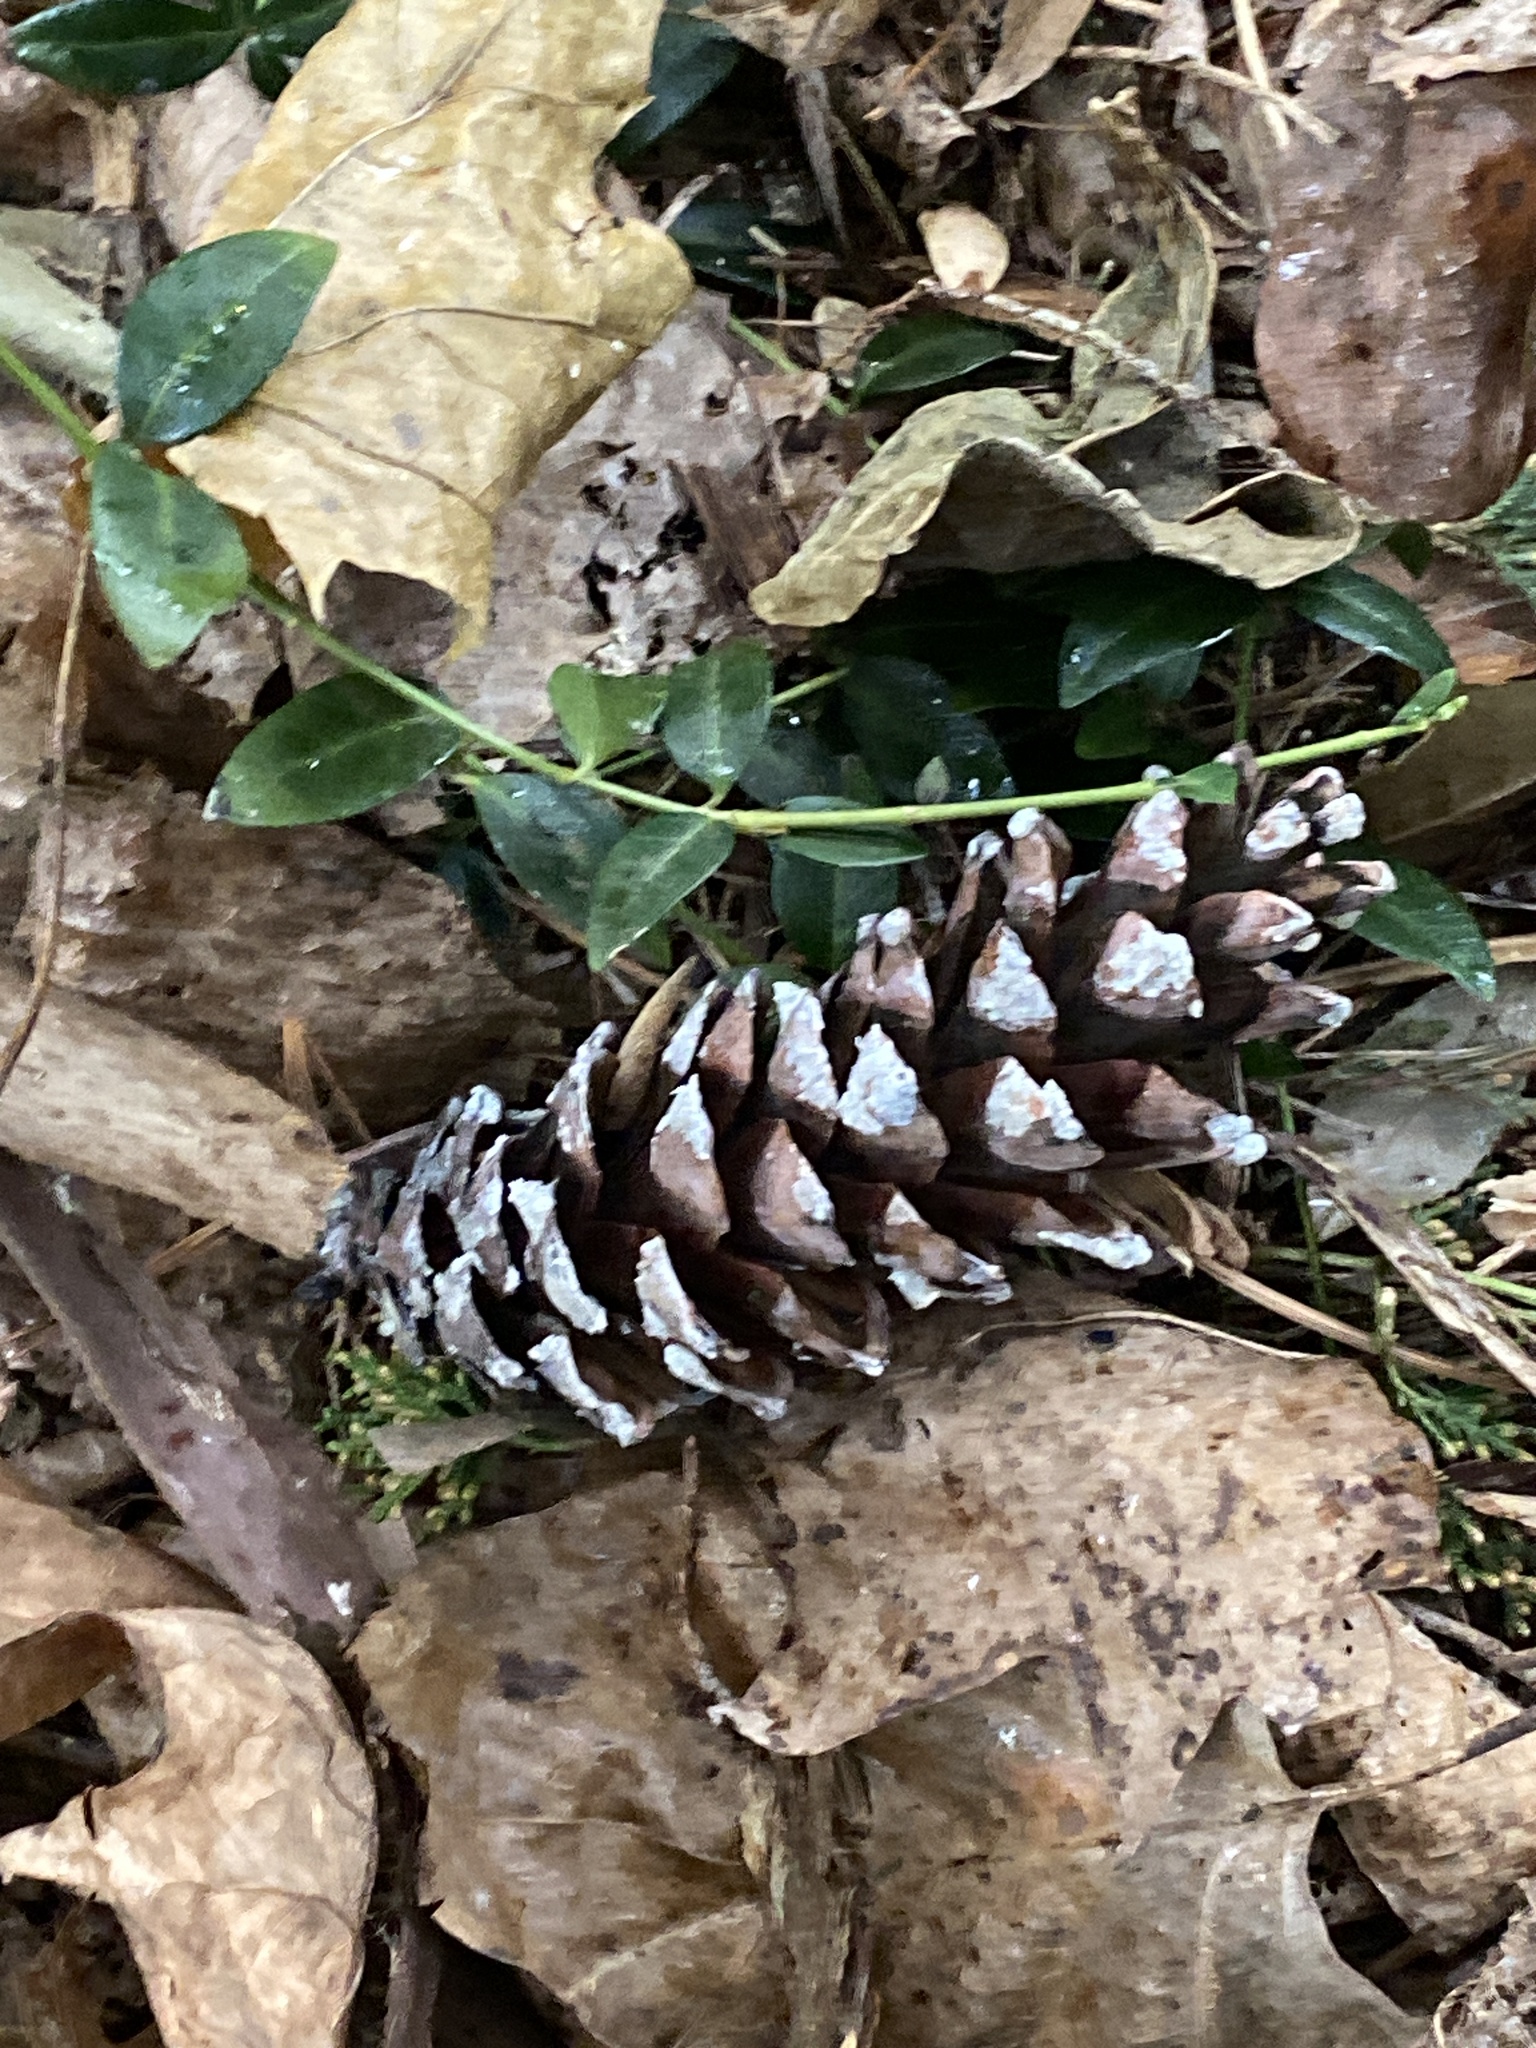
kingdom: Plantae
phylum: Tracheophyta
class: Pinopsida
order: Pinales
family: Pinaceae
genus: Pinus
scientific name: Pinus strobus
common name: Weymouth pine
